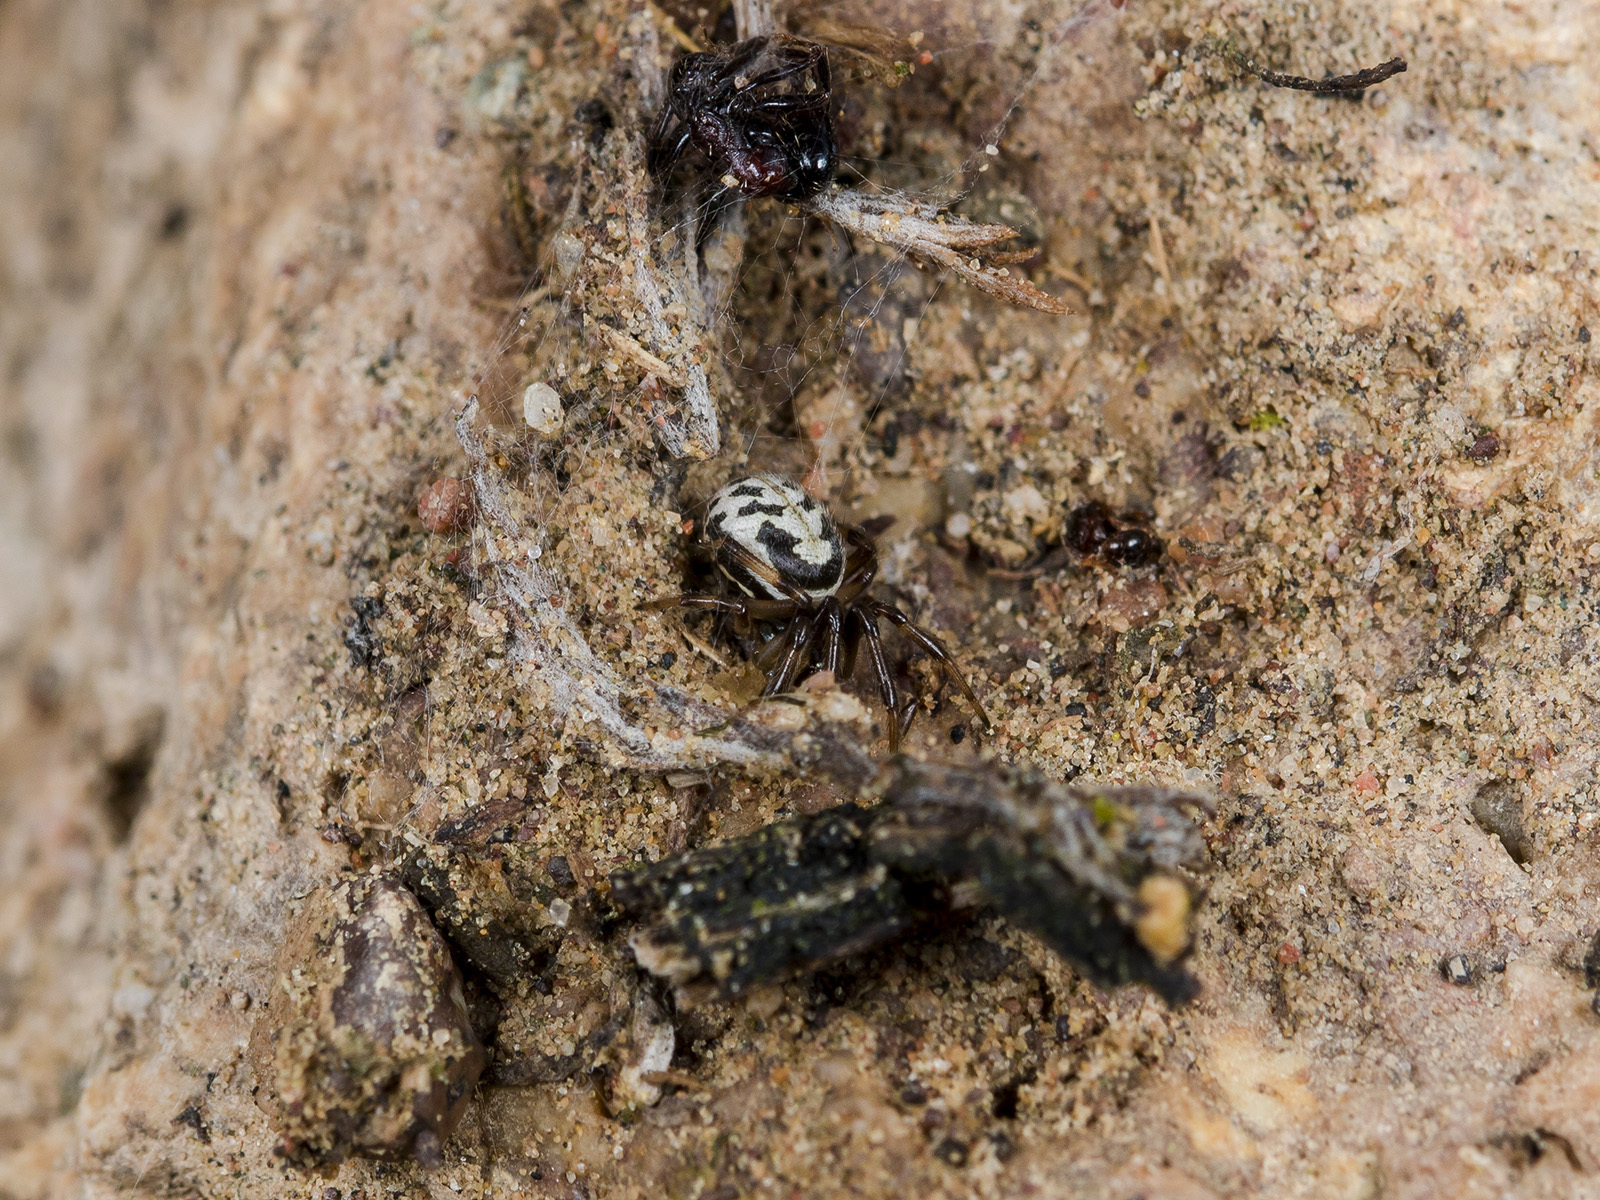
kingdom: Animalia
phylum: Arthropoda
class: Arachnida
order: Araneae
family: Theridiidae
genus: Steatoda
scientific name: Steatoda albomaculata
